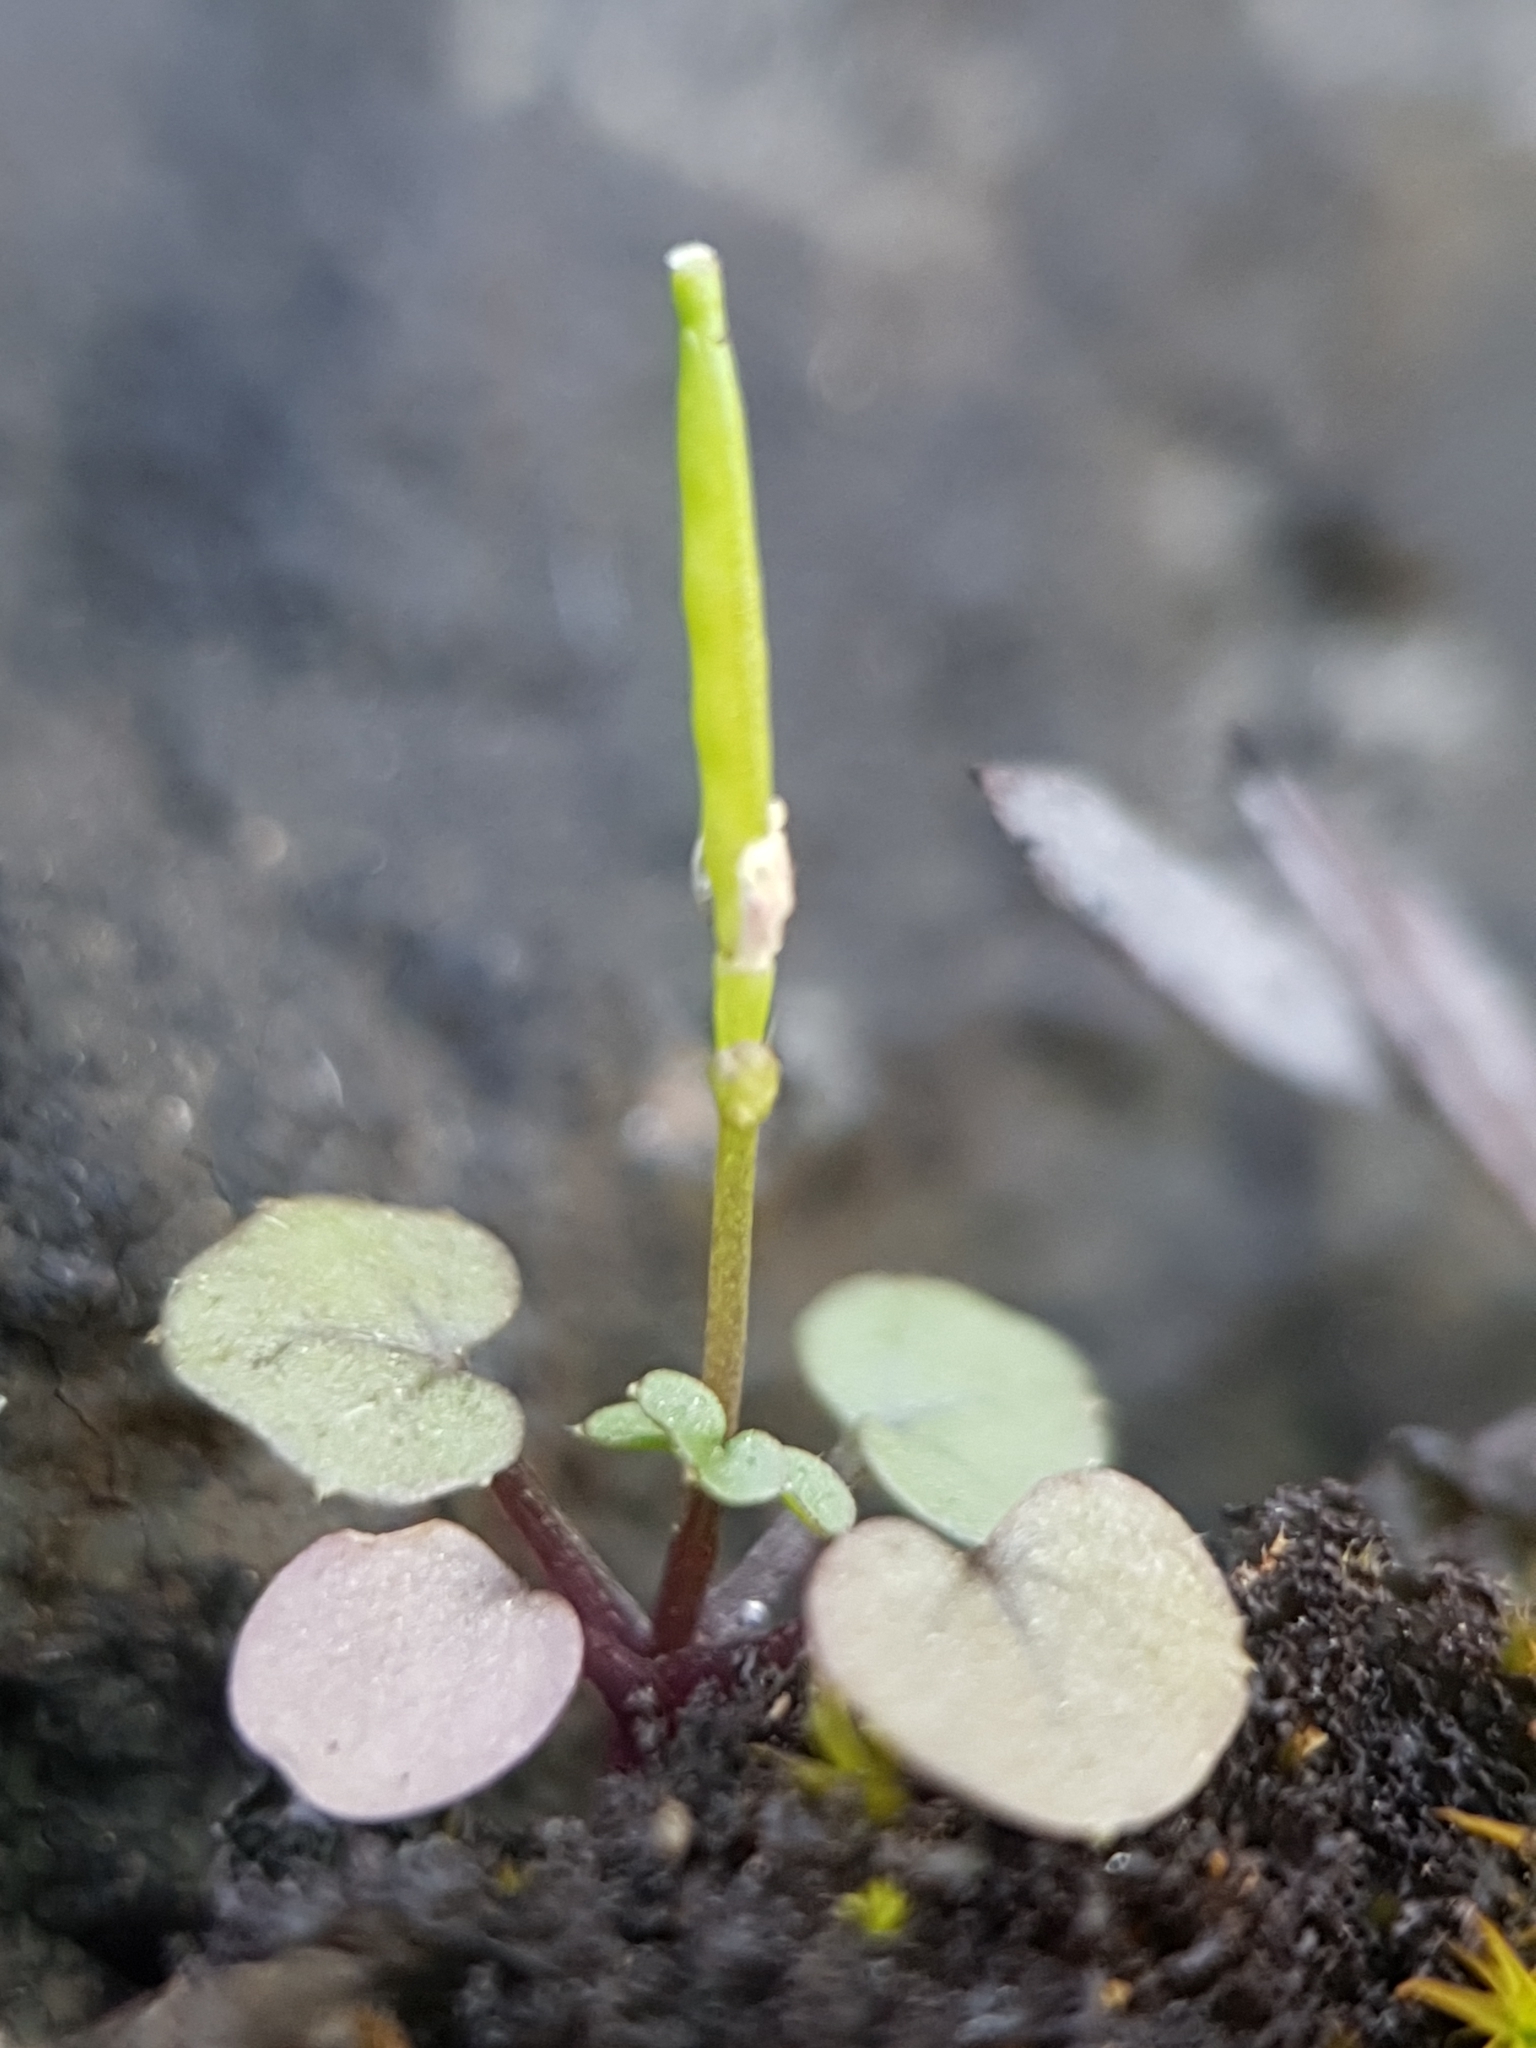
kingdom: Plantae
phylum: Tracheophyta
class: Magnoliopsida
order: Brassicales
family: Brassicaceae
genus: Cardamine
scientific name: Cardamine hirsuta
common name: Hairy bittercress
